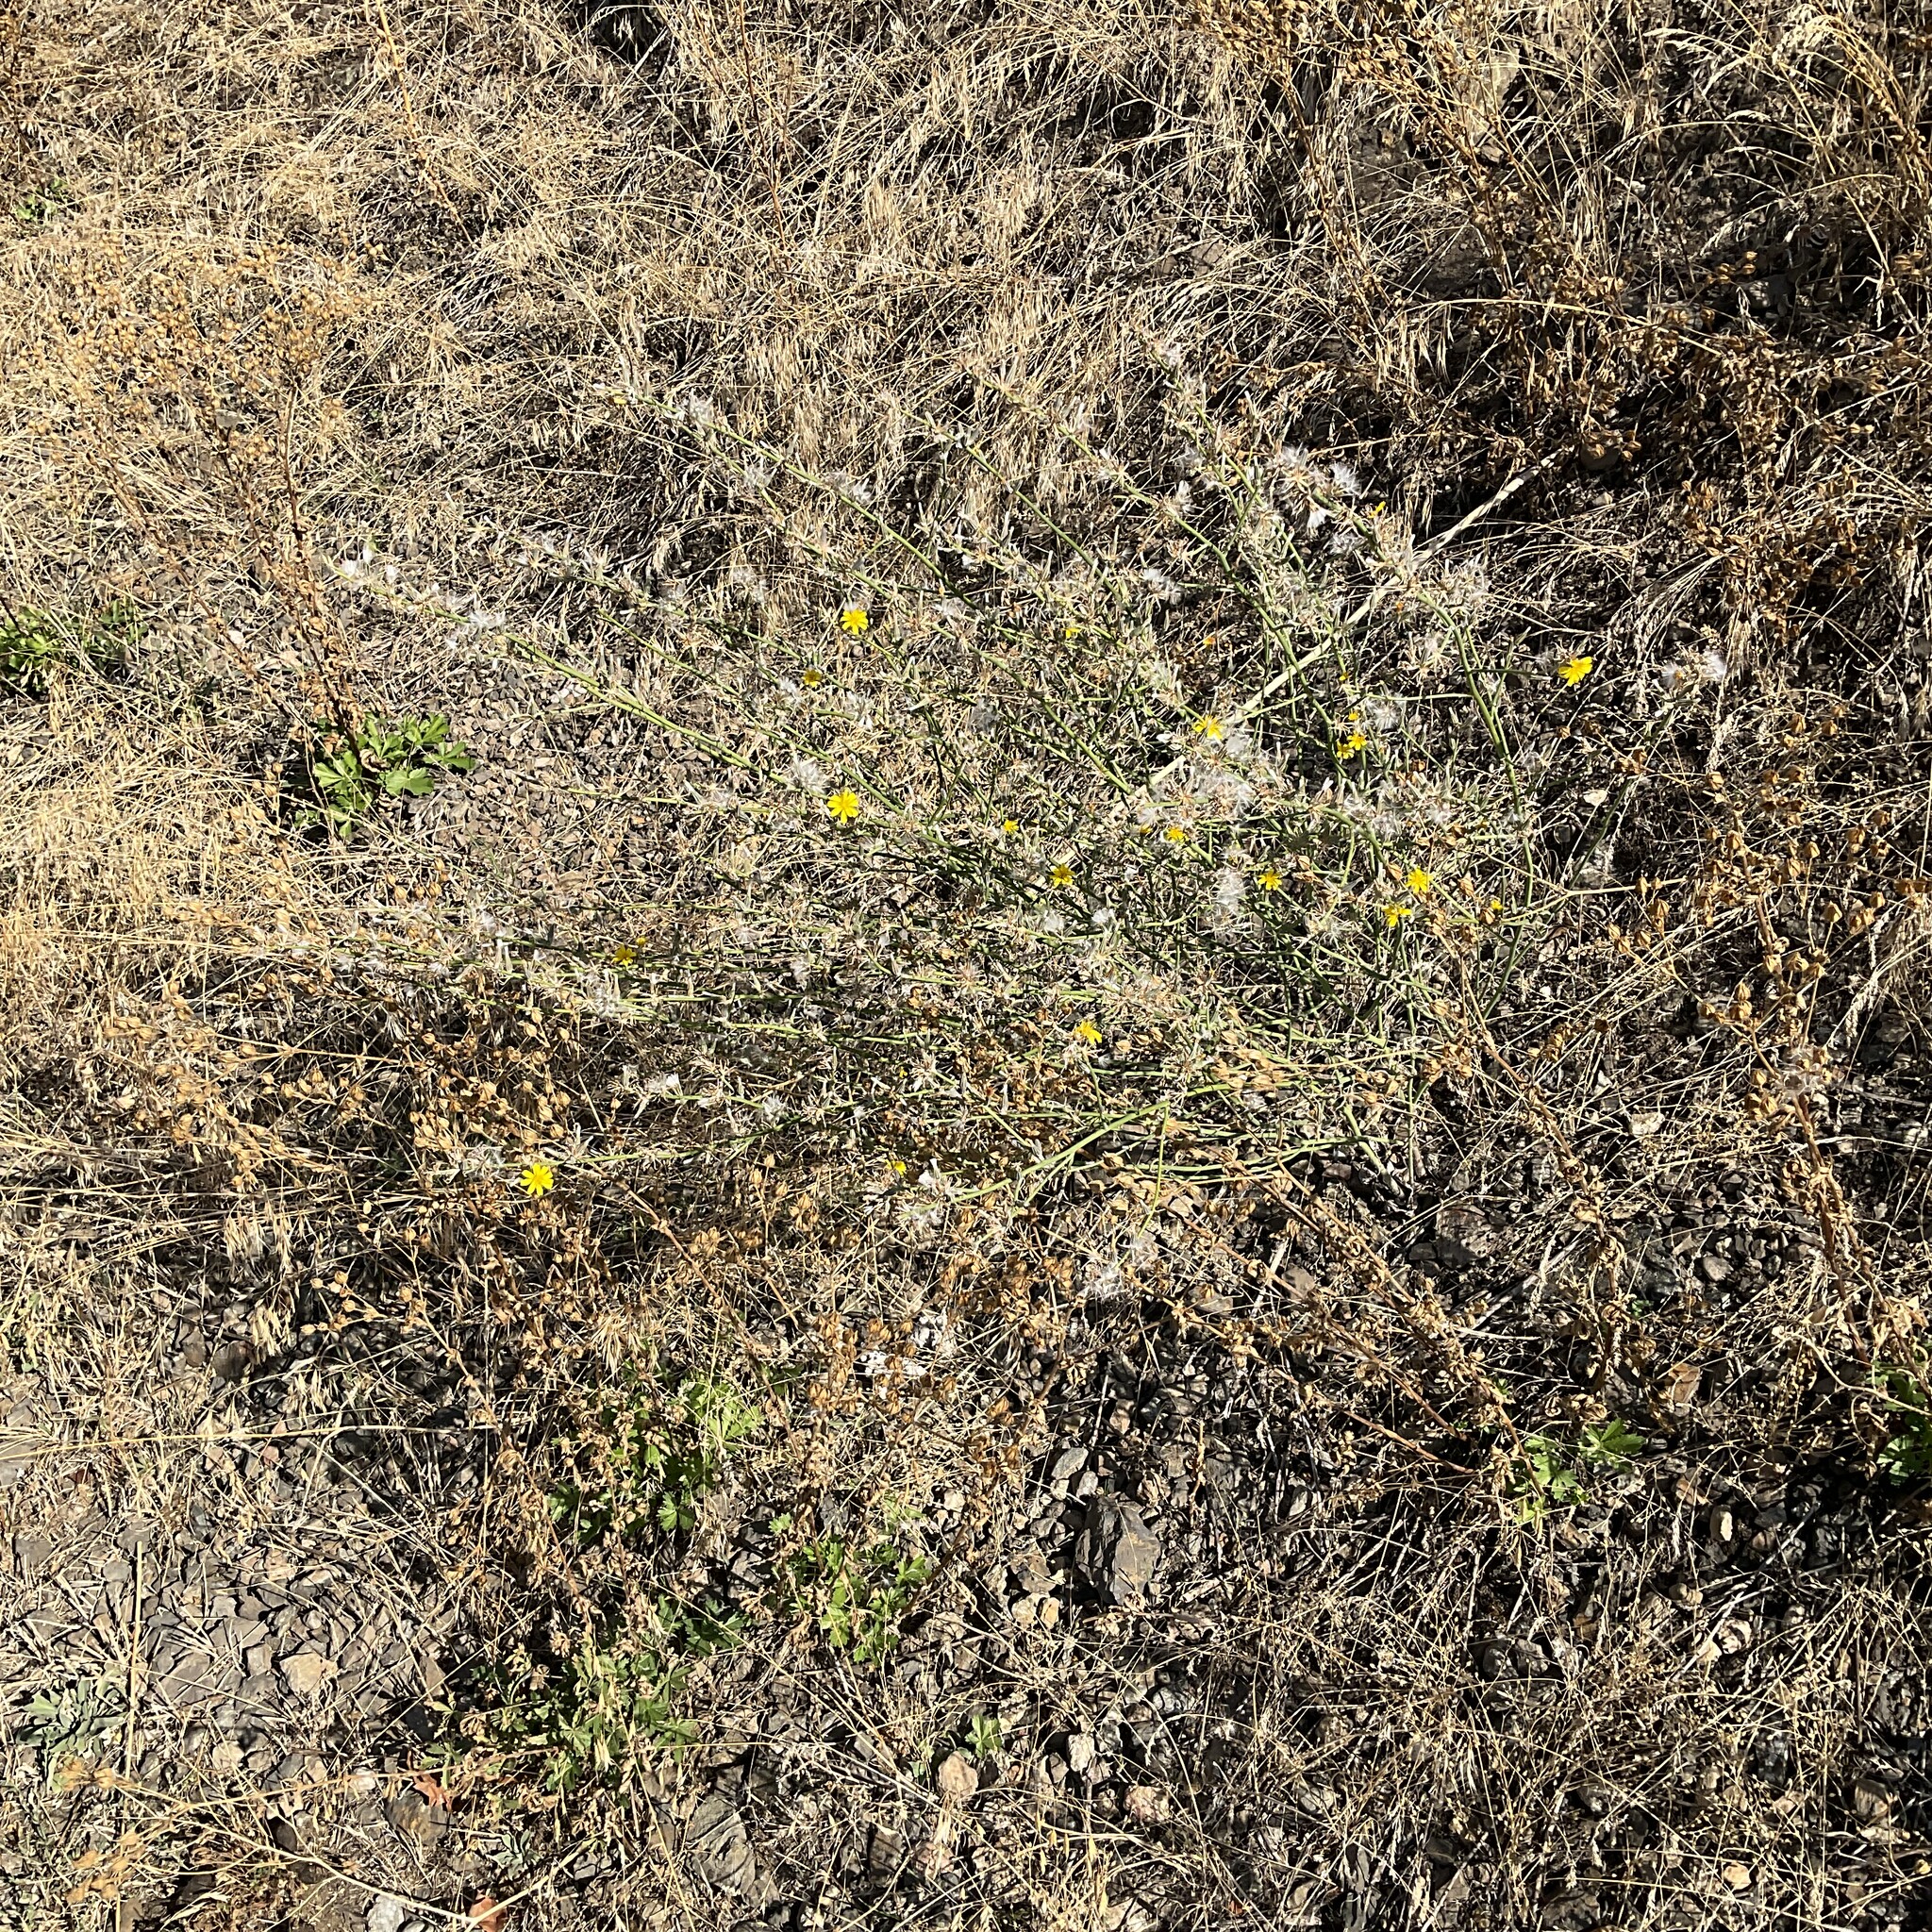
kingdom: Plantae
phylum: Tracheophyta
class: Magnoliopsida
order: Asterales
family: Asteraceae
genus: Chondrilla
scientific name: Chondrilla juncea
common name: Skeleton weed
